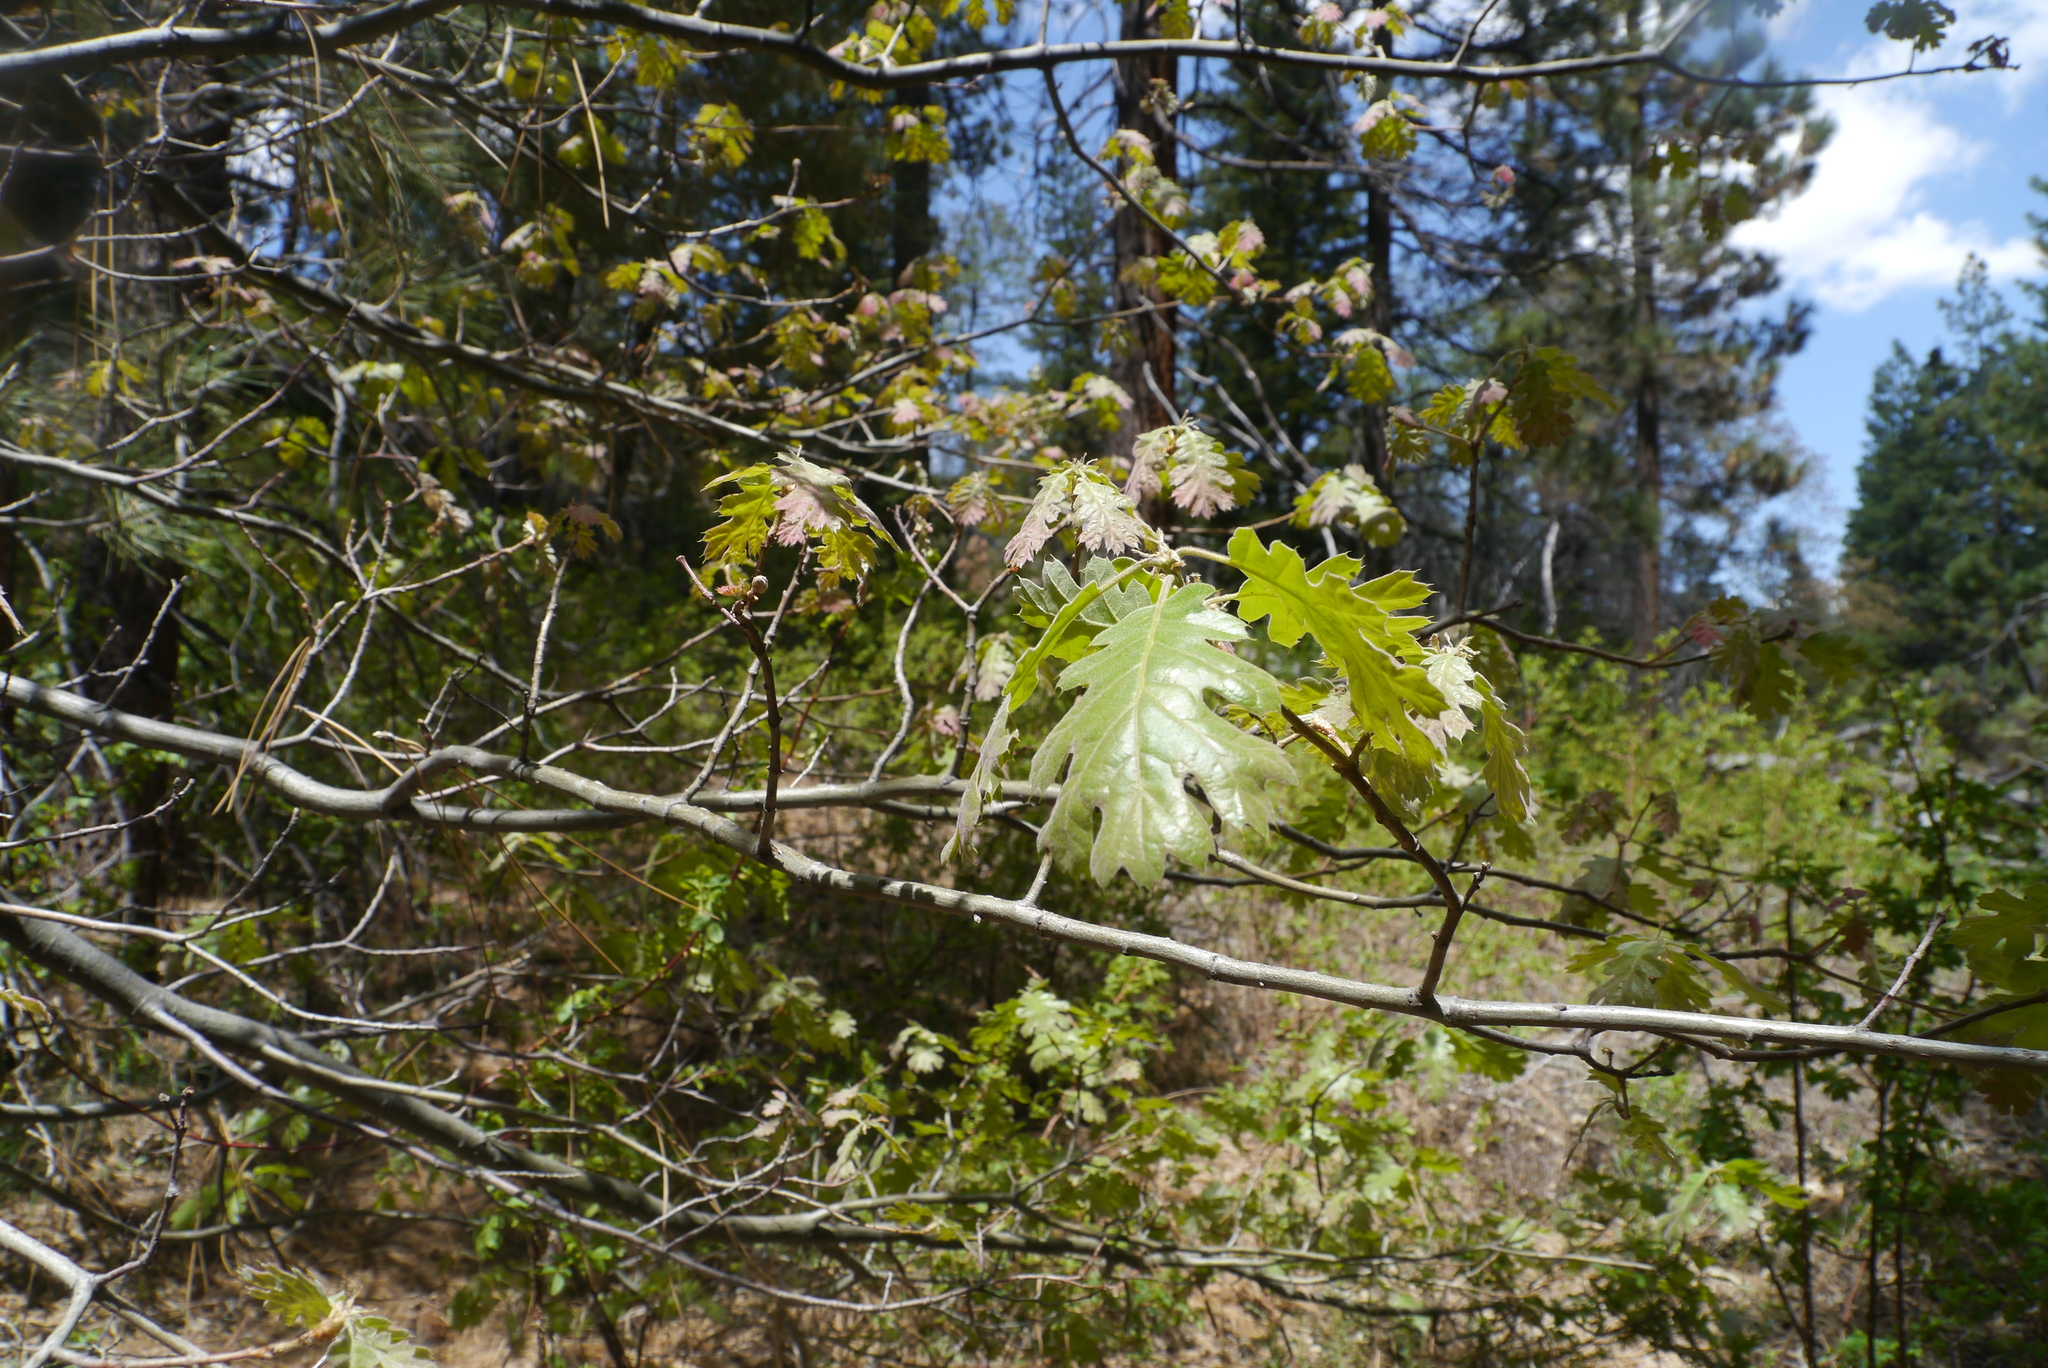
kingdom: Plantae
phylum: Tracheophyta
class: Magnoliopsida
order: Fagales
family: Fagaceae
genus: Quercus
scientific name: Quercus kelloggii
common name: California black oak
